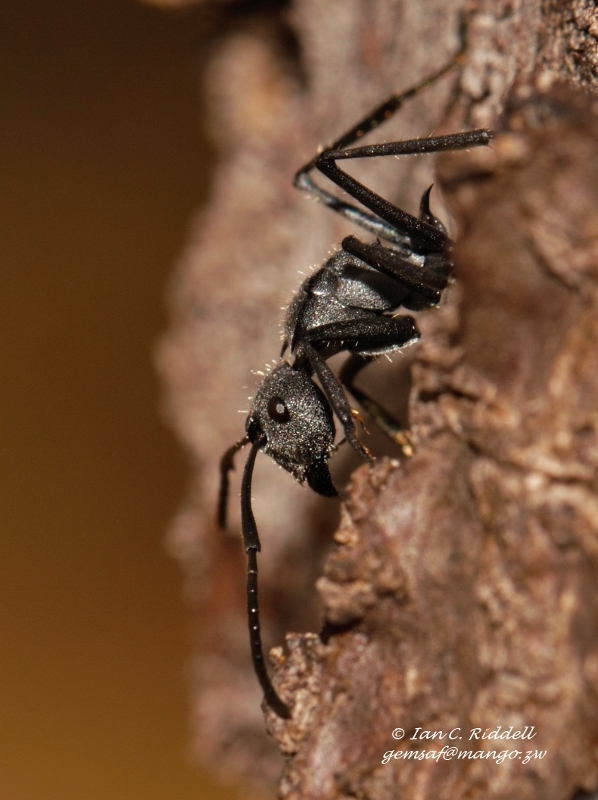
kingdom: Animalia
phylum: Arthropoda
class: Insecta
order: Hymenoptera
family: Formicidae
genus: Polyrhachis
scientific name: Polyrhachis schistacea
